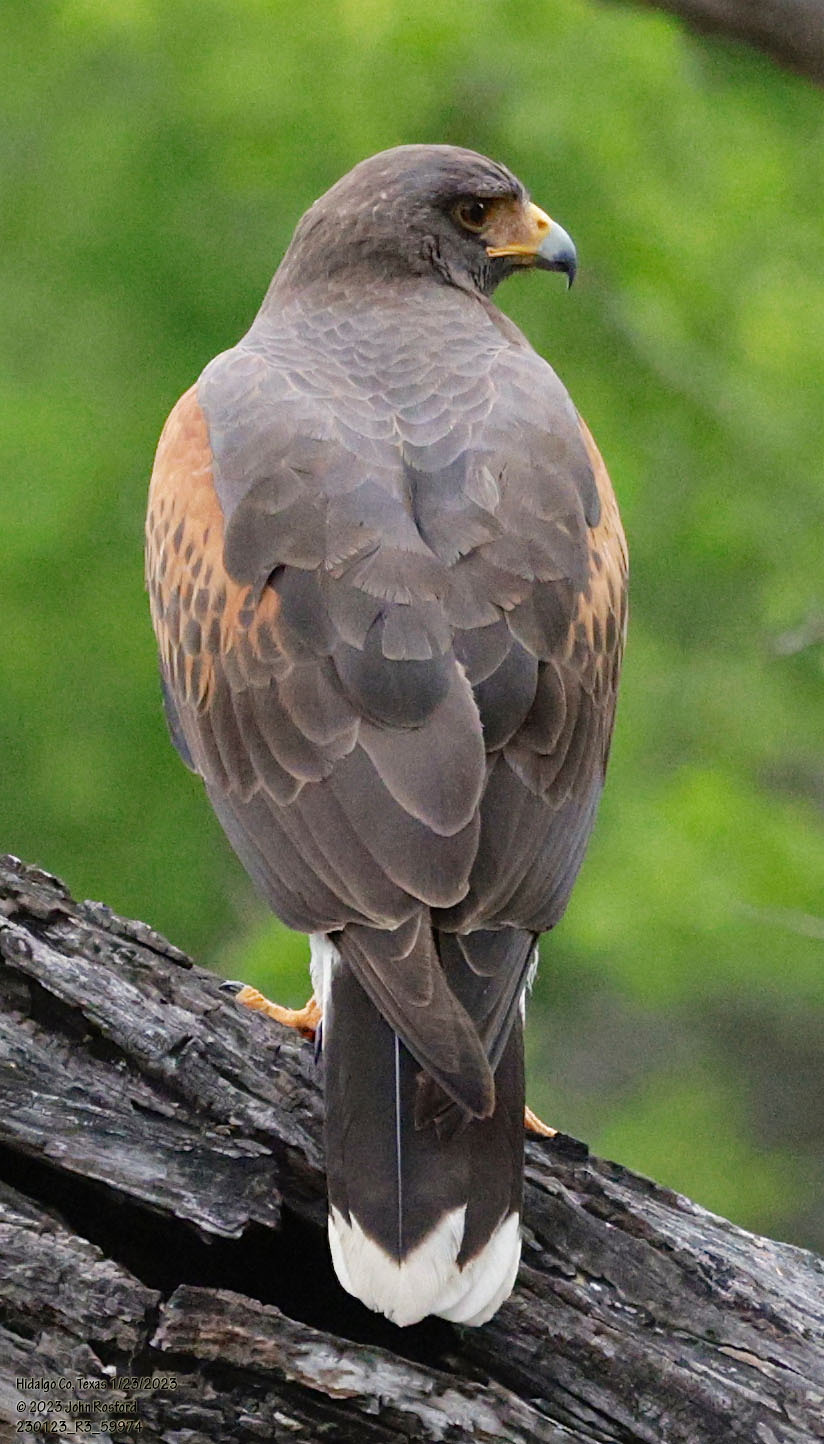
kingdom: Animalia
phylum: Chordata
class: Aves
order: Accipitriformes
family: Accipitridae
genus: Parabuteo
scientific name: Parabuteo unicinctus
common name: Harris's hawk
